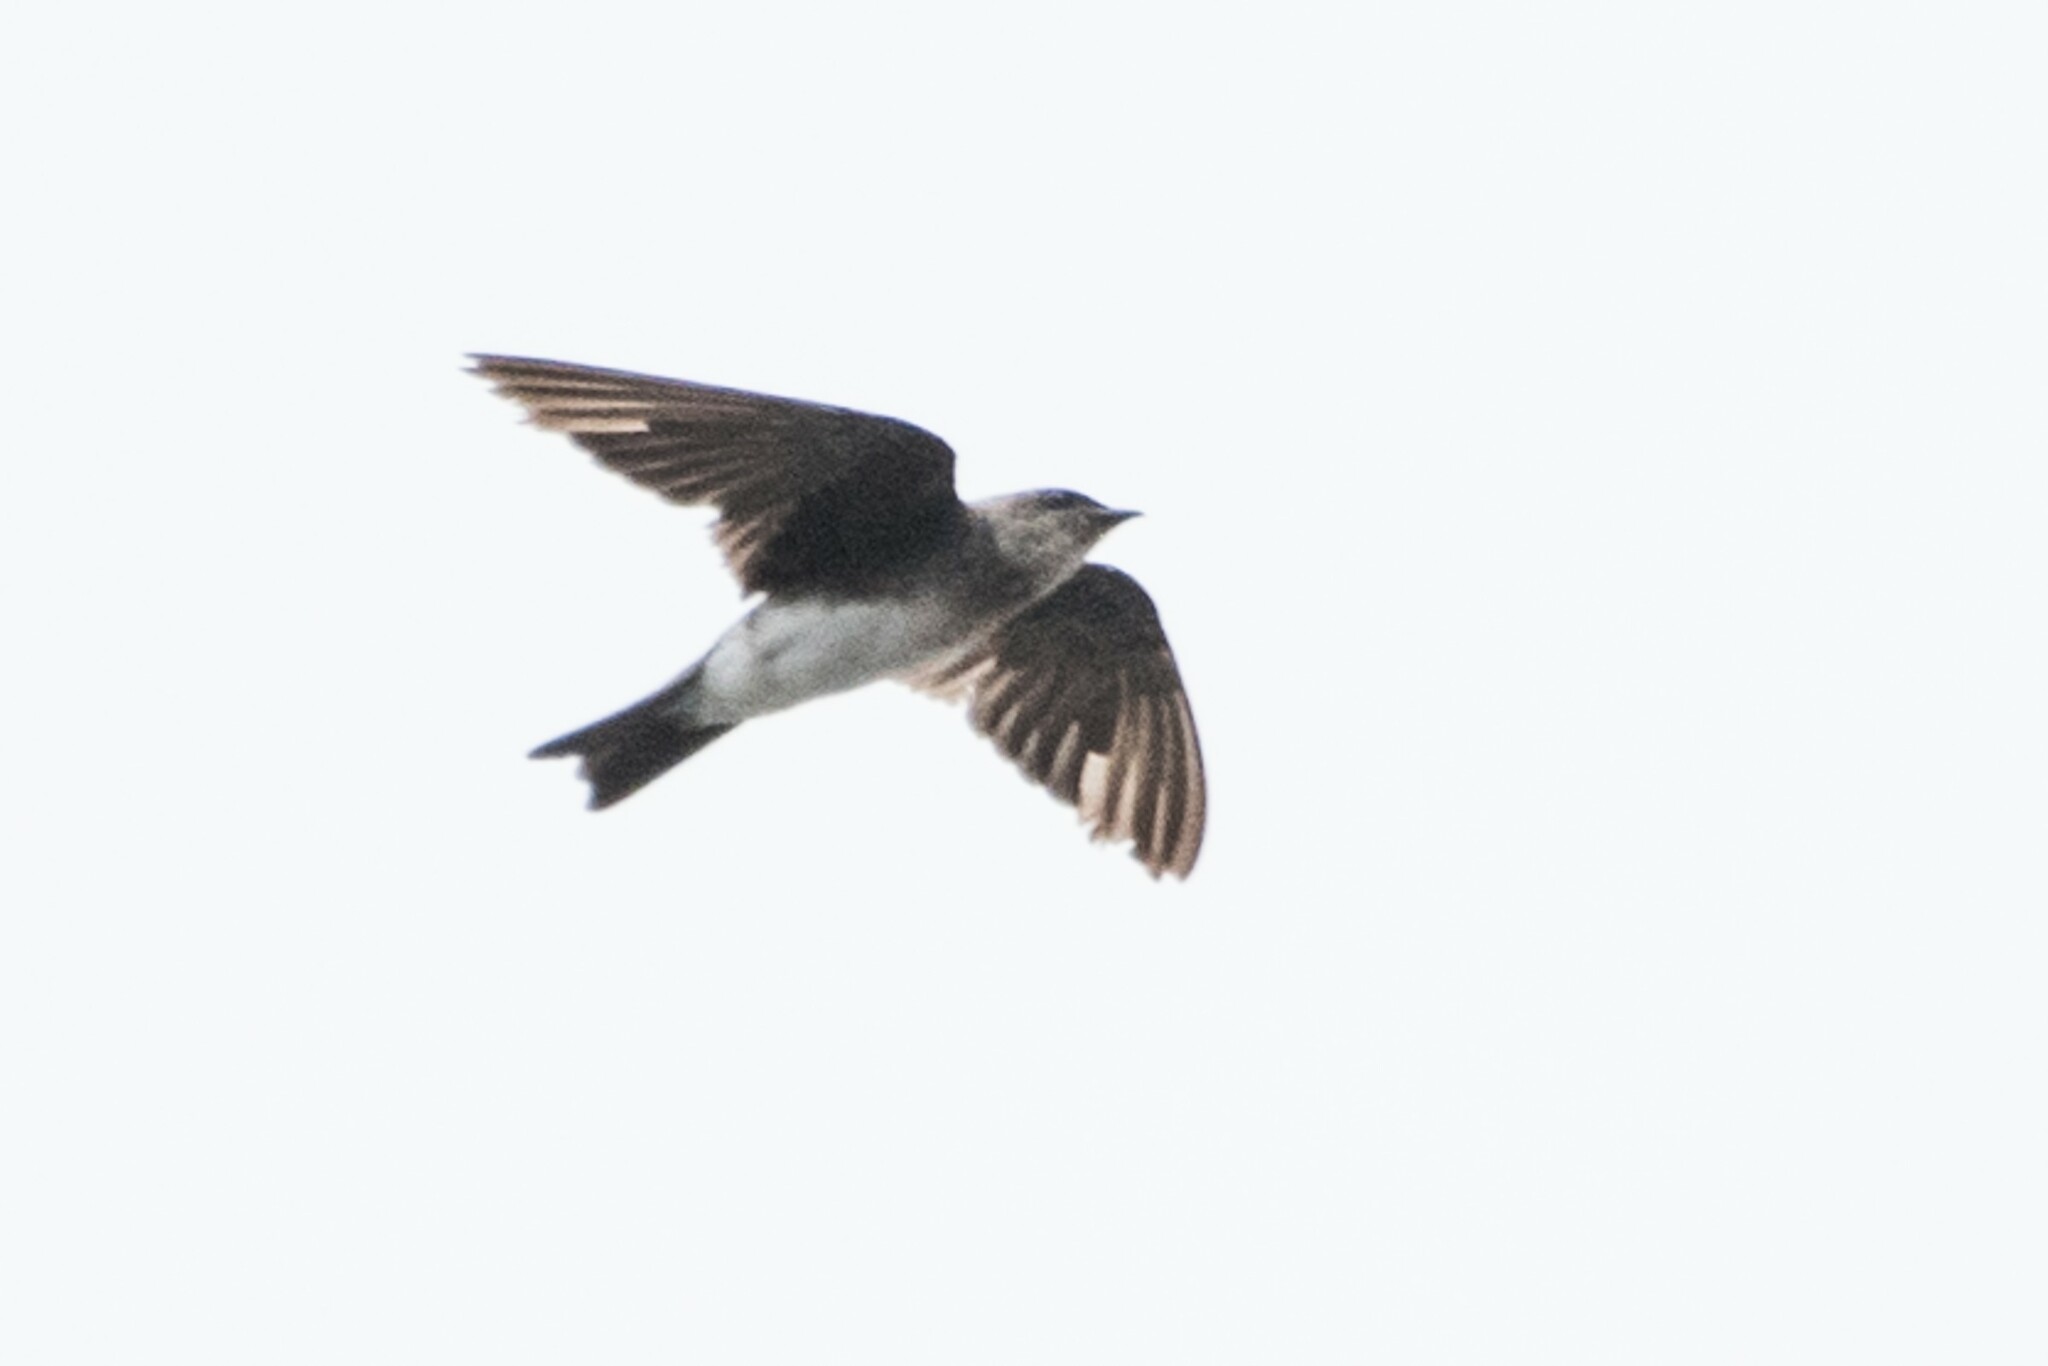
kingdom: Animalia
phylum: Chordata
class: Aves
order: Passeriformes
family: Hirundinidae
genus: Progne
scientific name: Progne tapera
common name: Brown-chested martin
